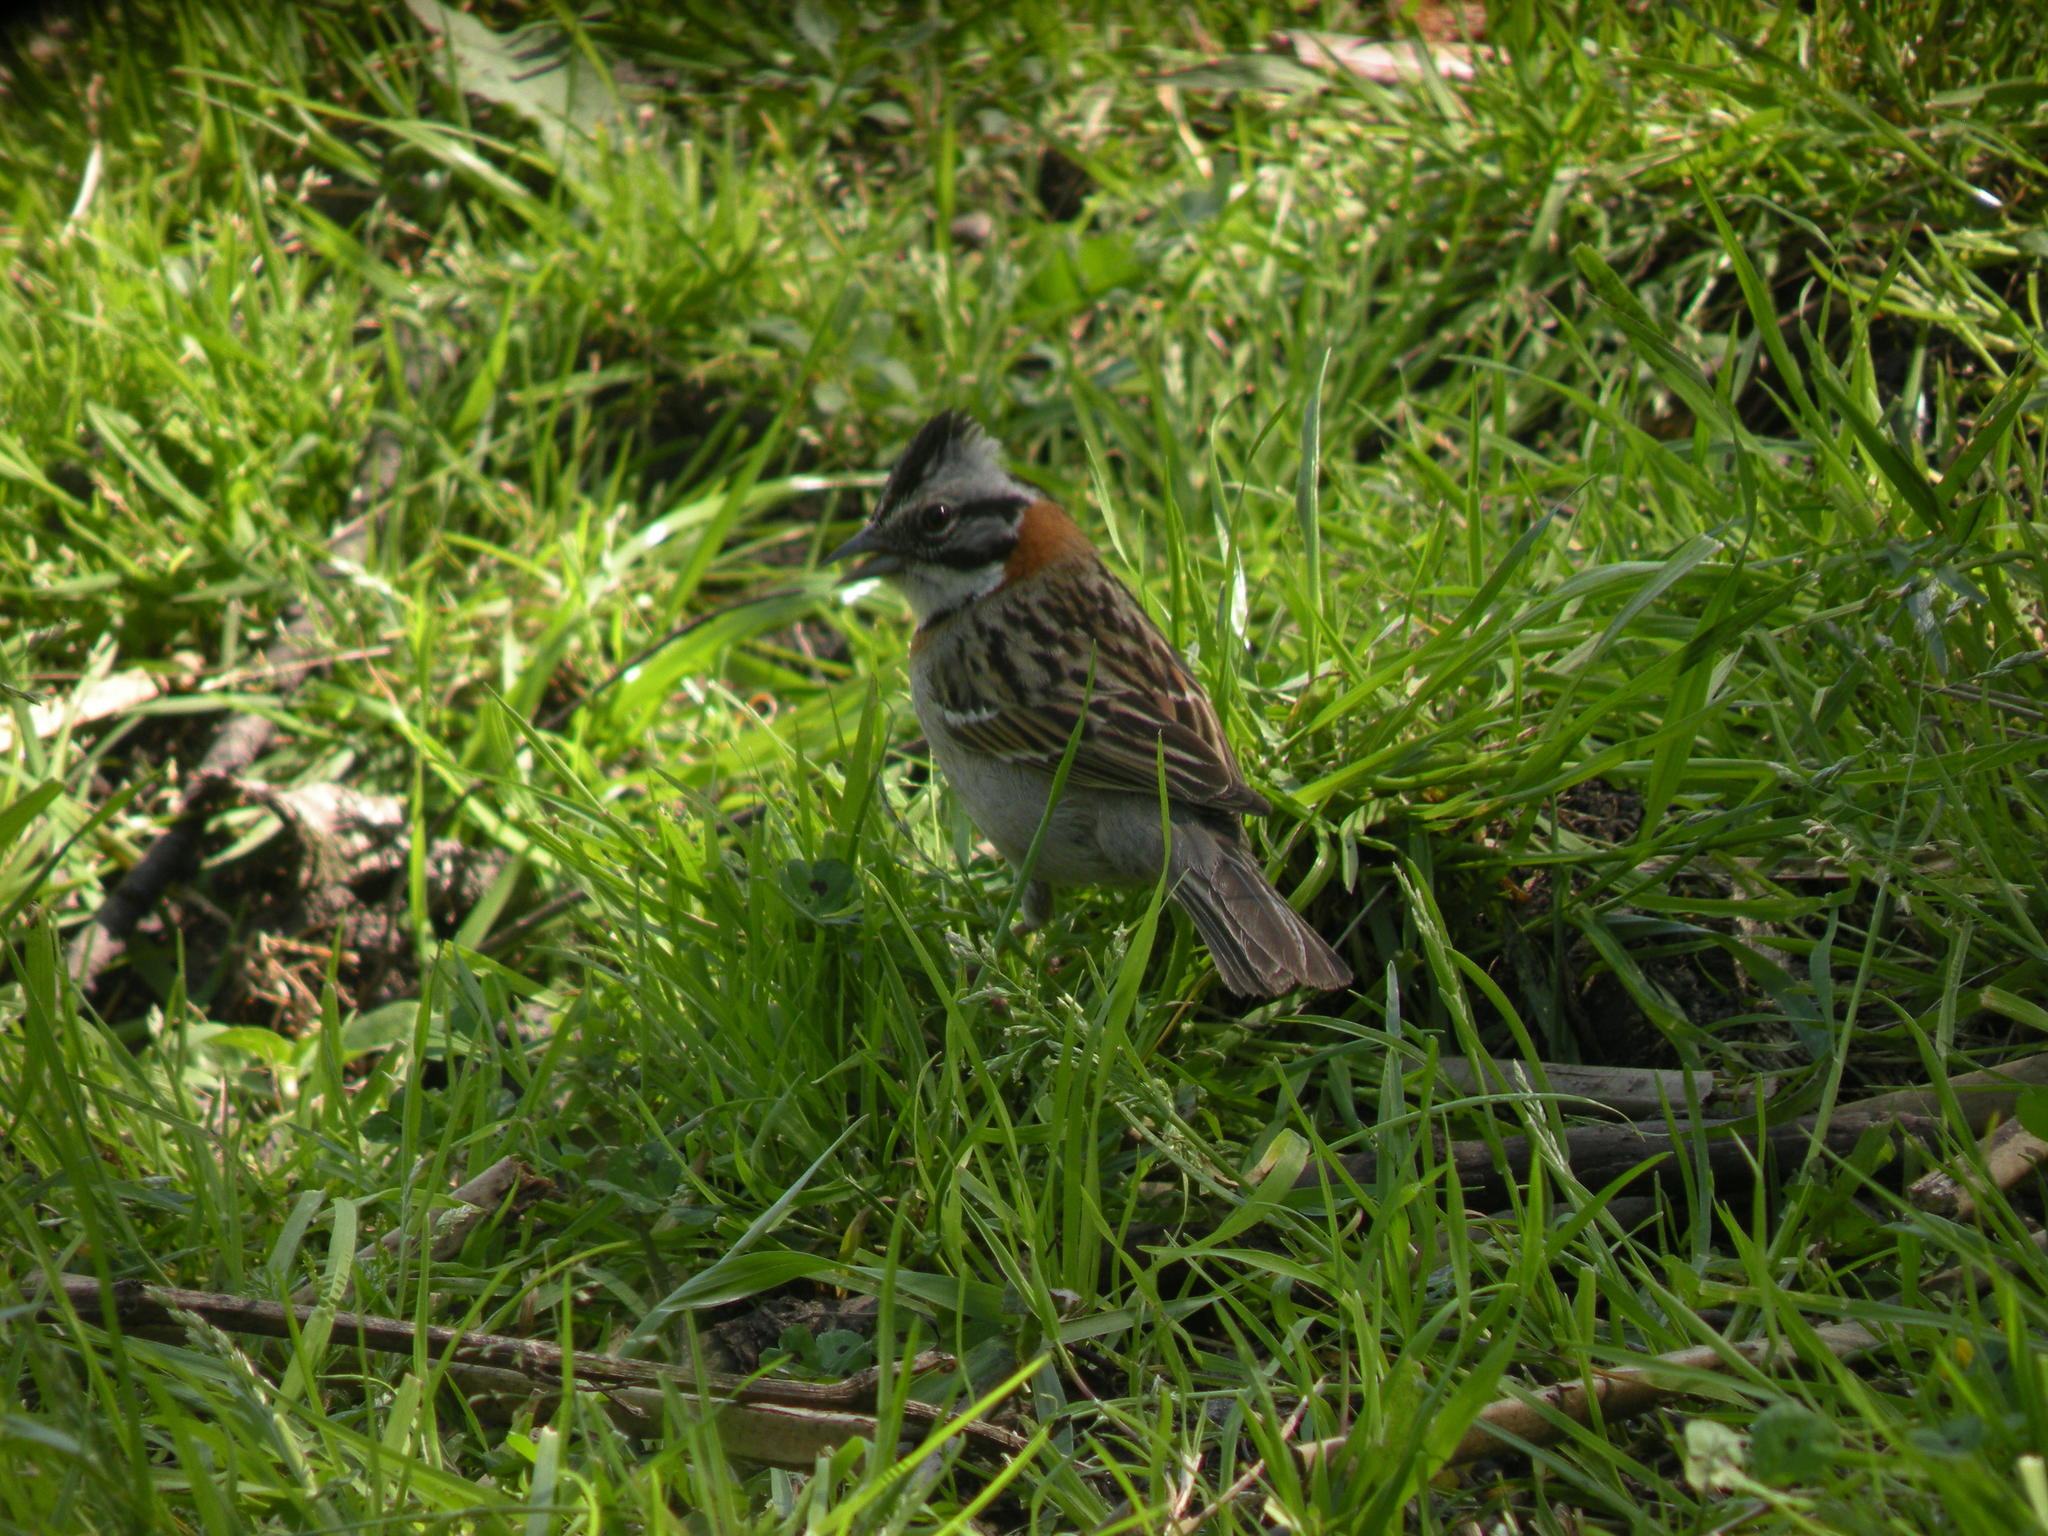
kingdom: Animalia
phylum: Chordata
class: Aves
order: Passeriformes
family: Passerellidae
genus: Zonotrichia
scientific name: Zonotrichia capensis
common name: Rufous-collared sparrow
